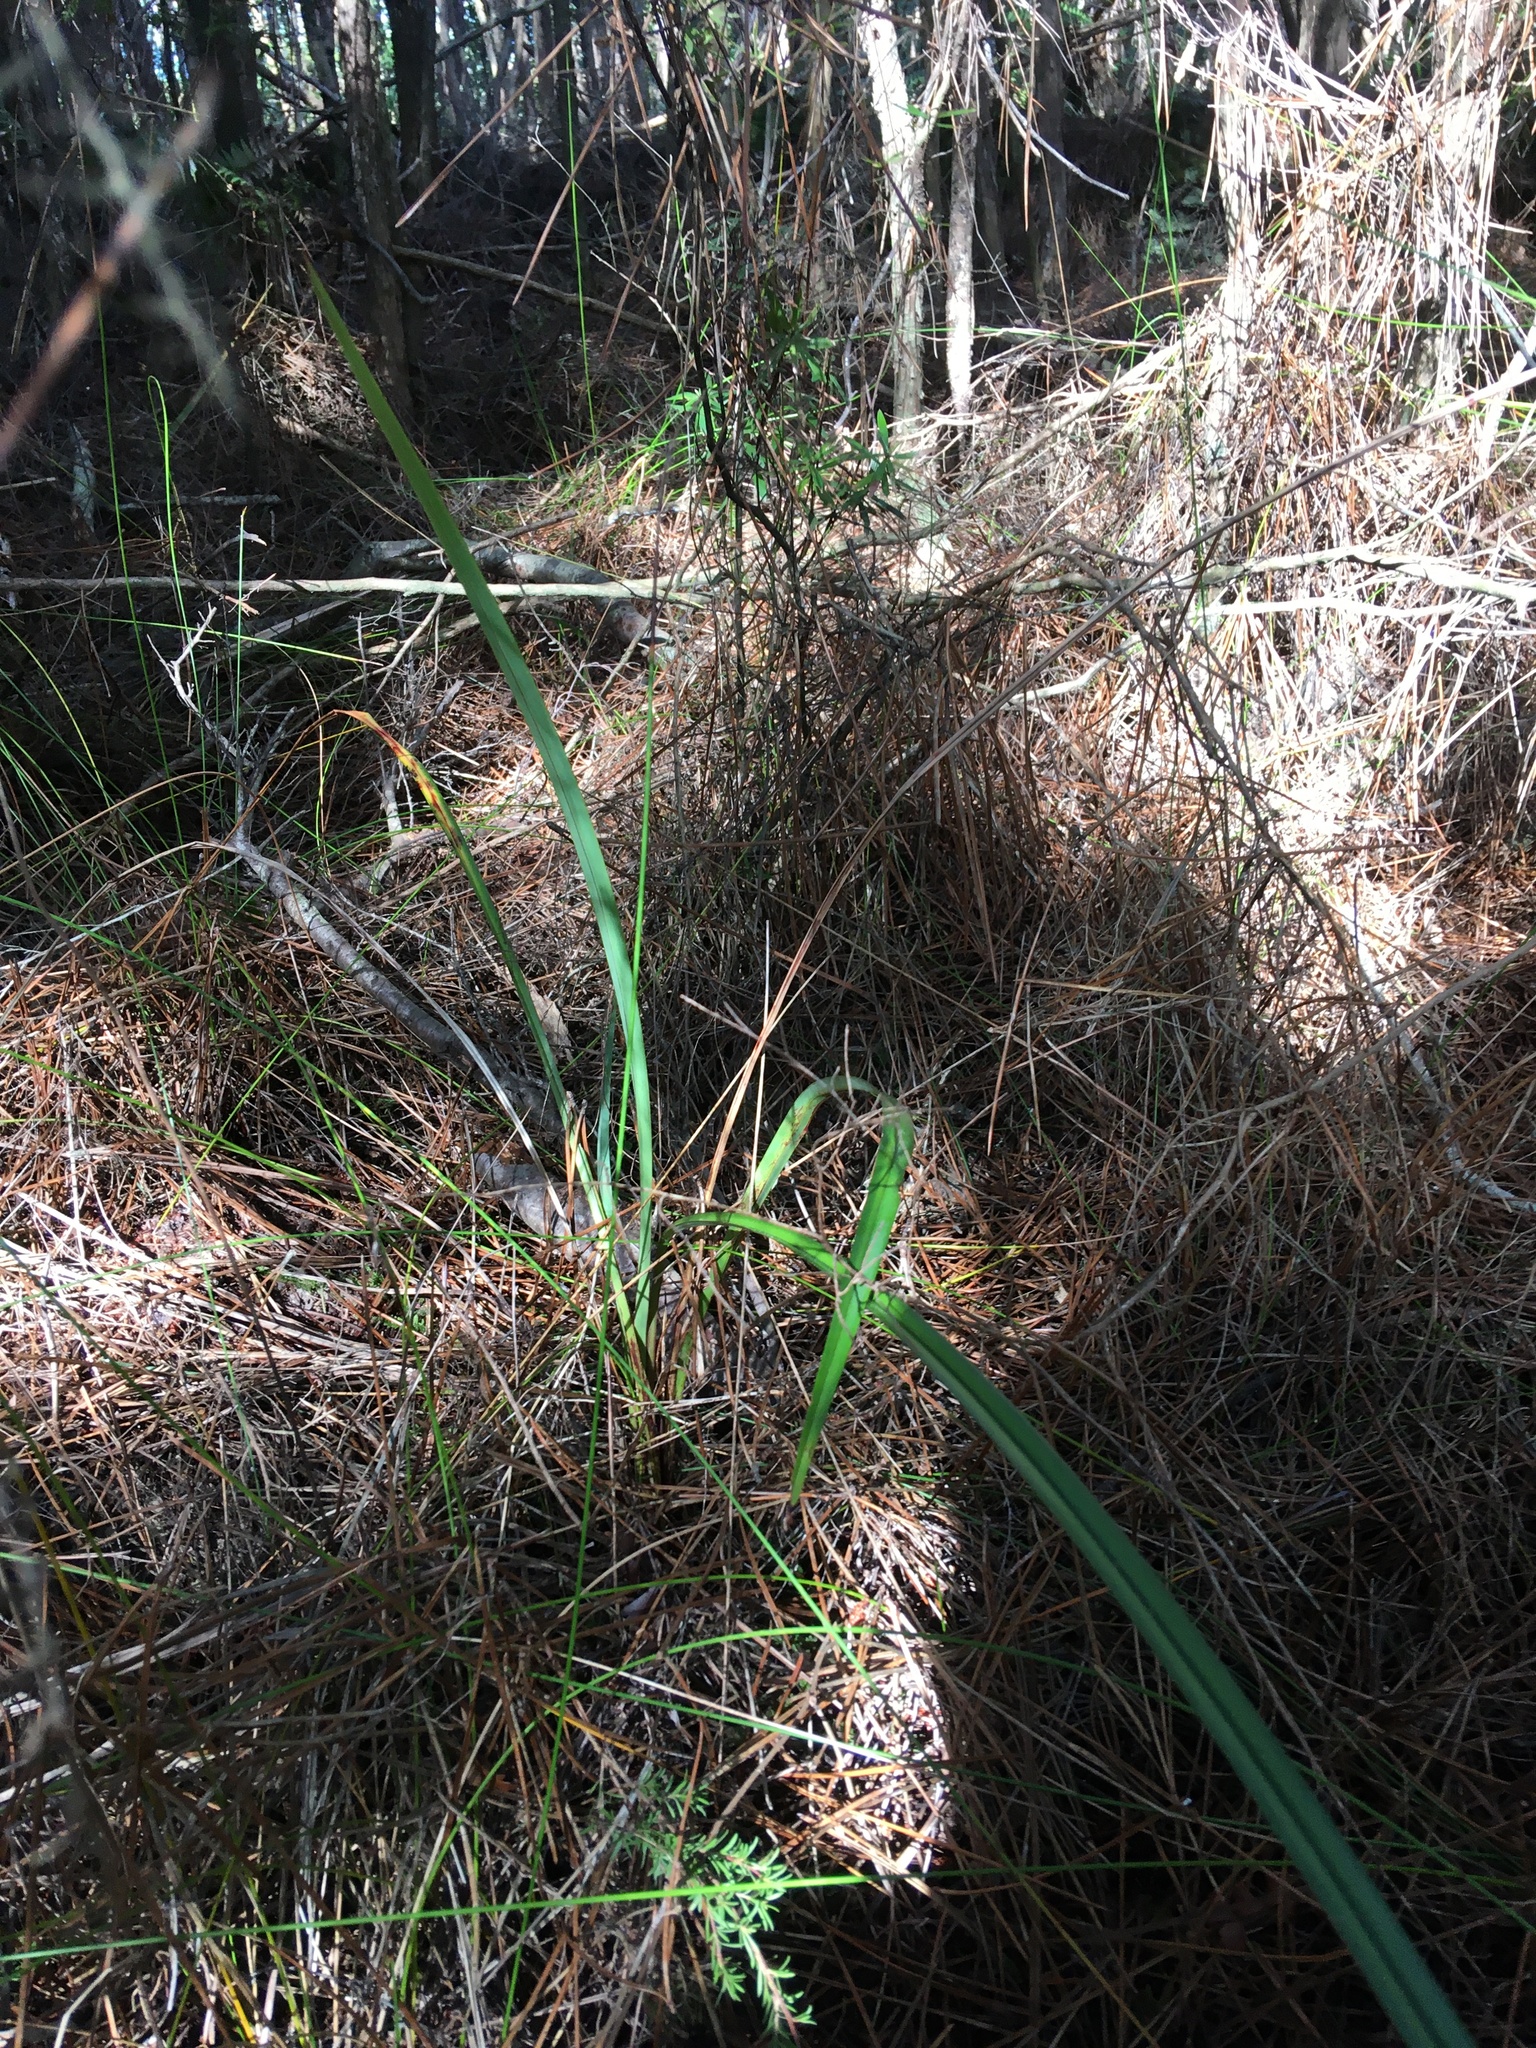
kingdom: Plantae
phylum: Tracheophyta
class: Liliopsida
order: Asparagales
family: Asphodelaceae
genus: Dianella
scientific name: Dianella nigra
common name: New zealand-blueberry
